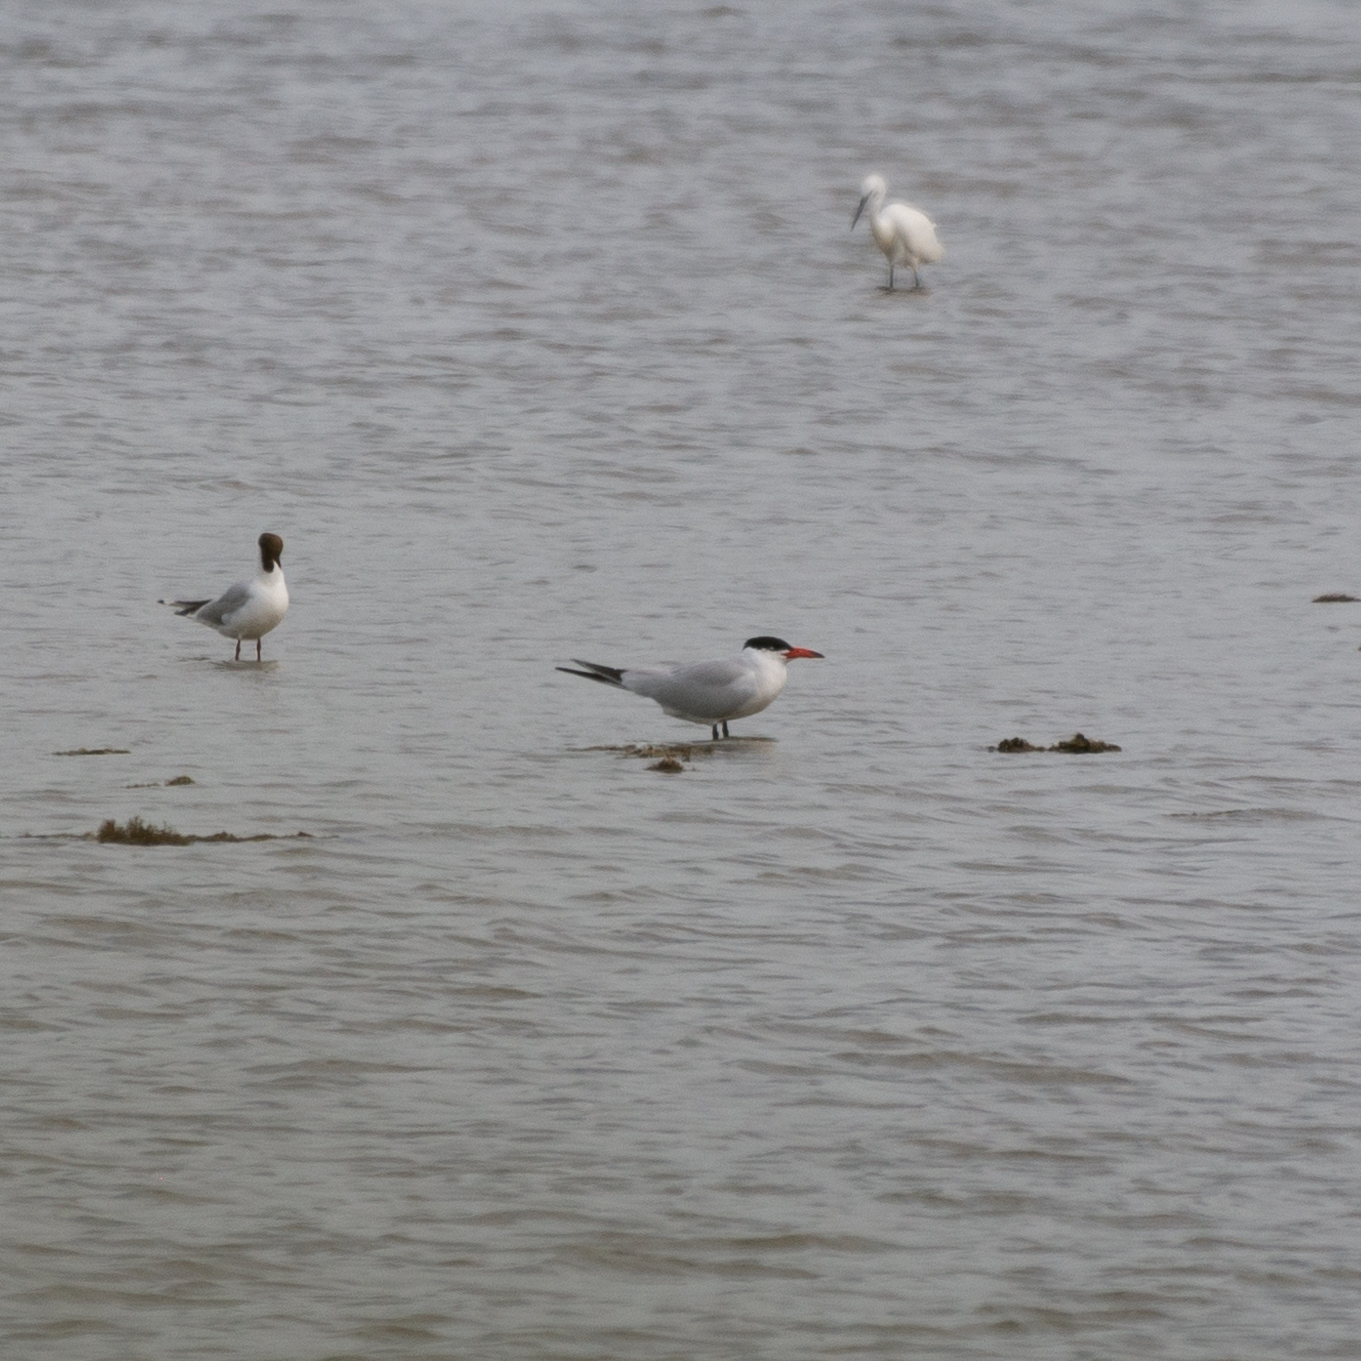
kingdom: Animalia
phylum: Chordata
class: Aves
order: Charadriiformes
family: Laridae
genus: Hydroprogne
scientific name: Hydroprogne caspia
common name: Caspian tern
